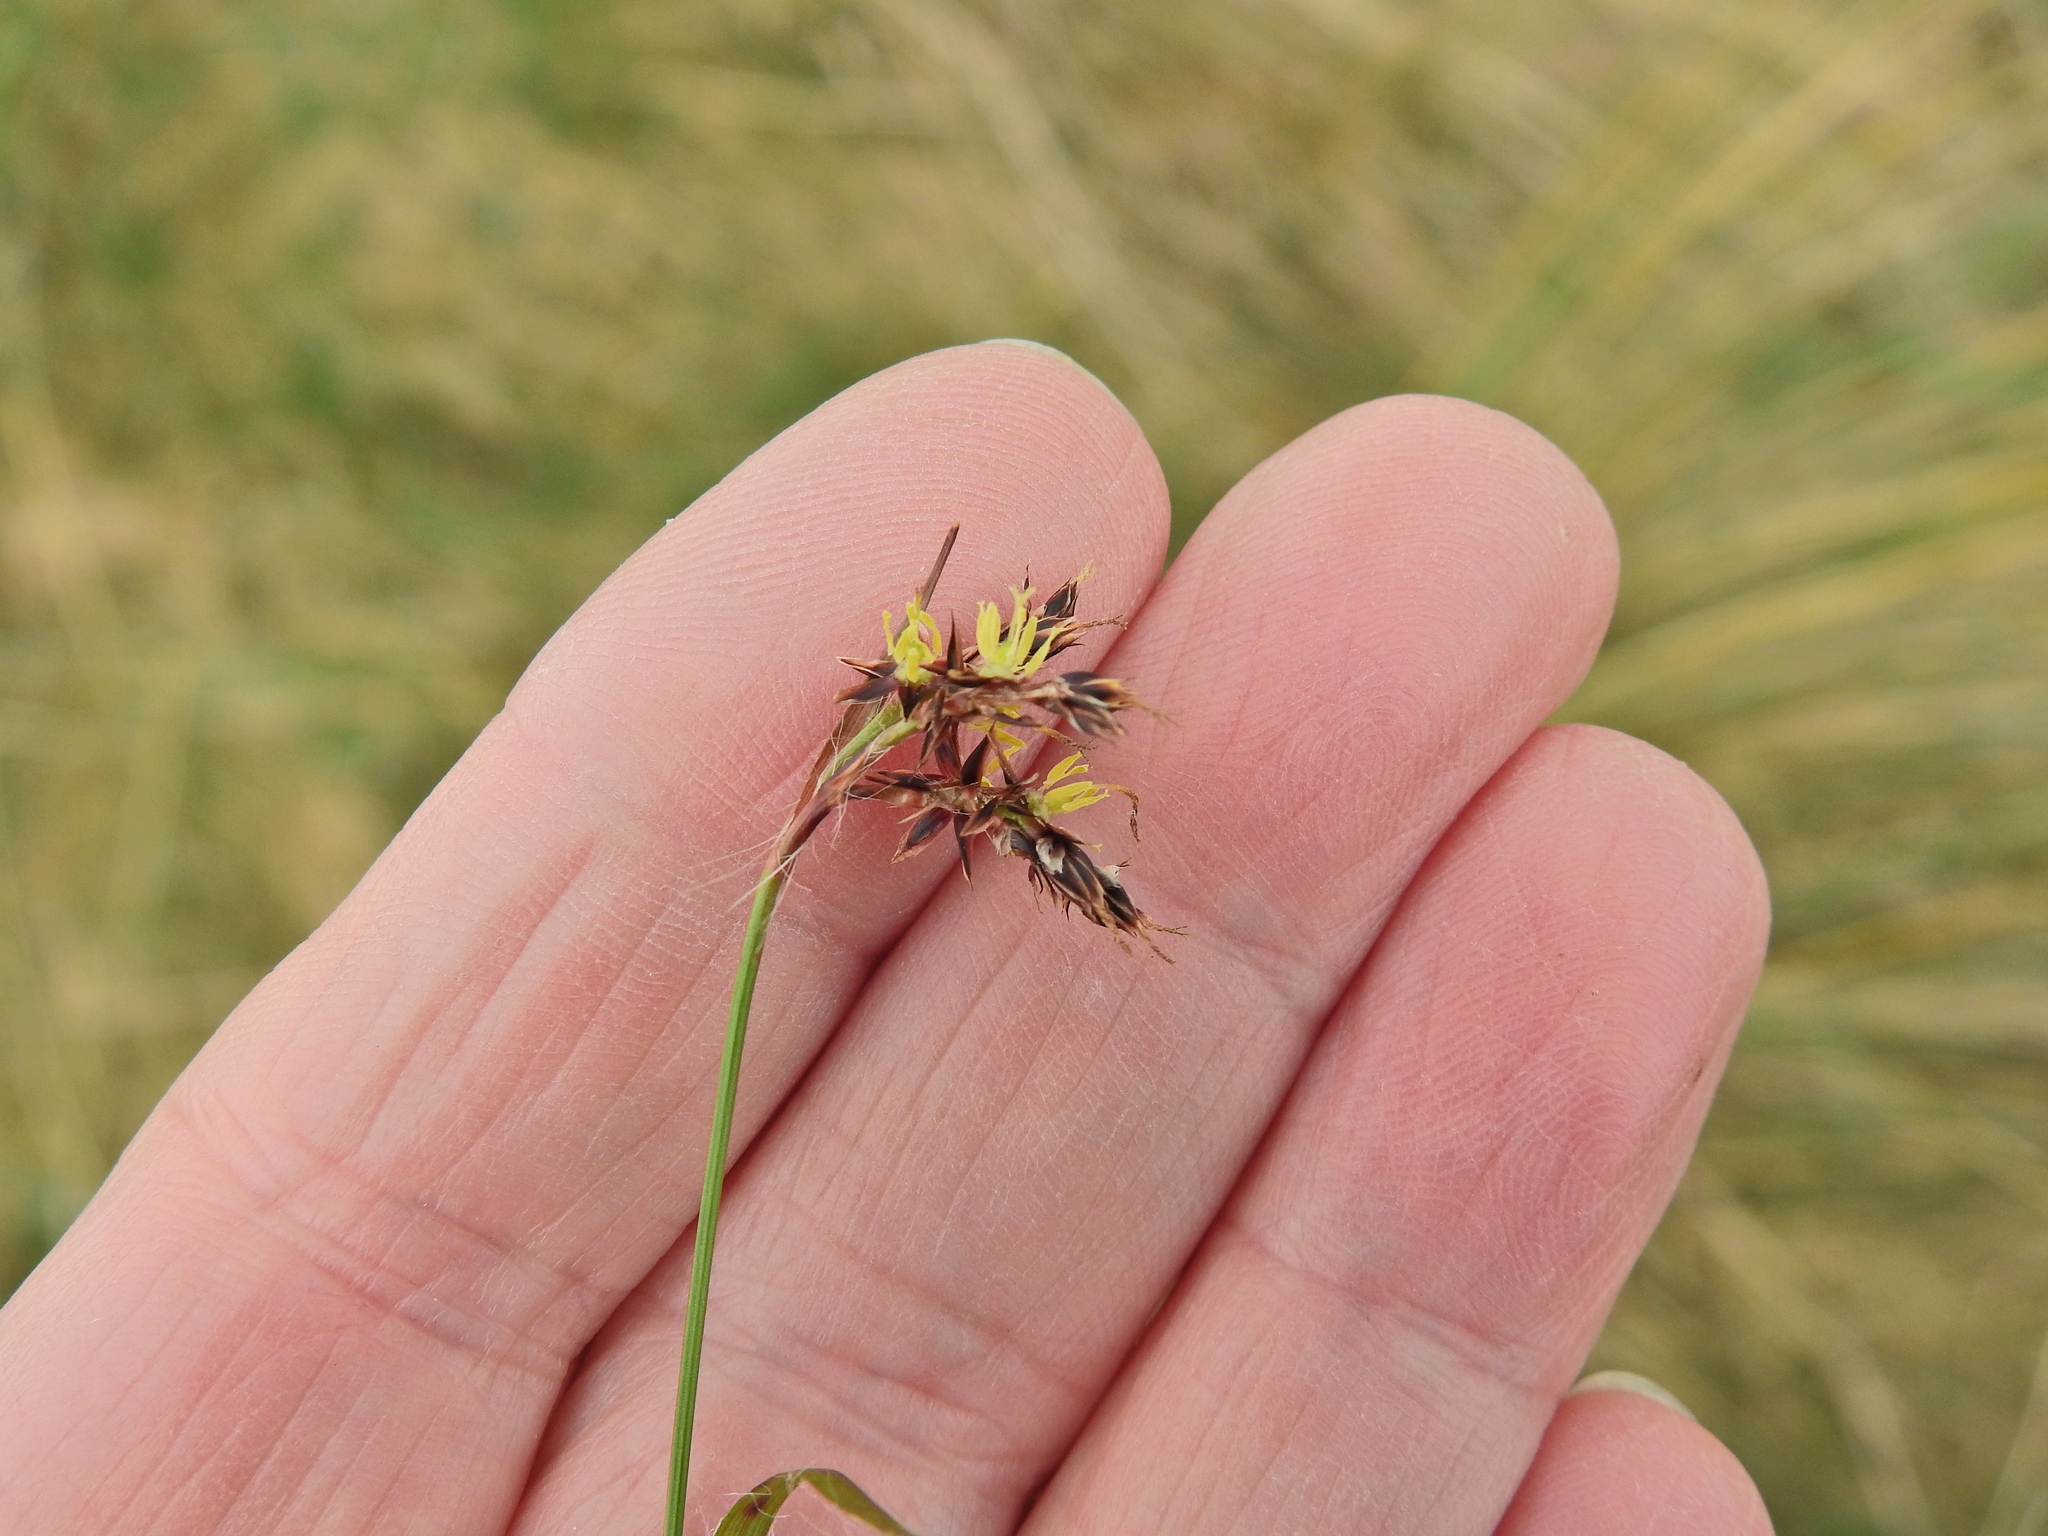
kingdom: Plantae
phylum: Tracheophyta
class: Liliopsida
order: Poales
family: Juncaceae
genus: Luzula
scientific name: Luzula campestris
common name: Field wood-rush
